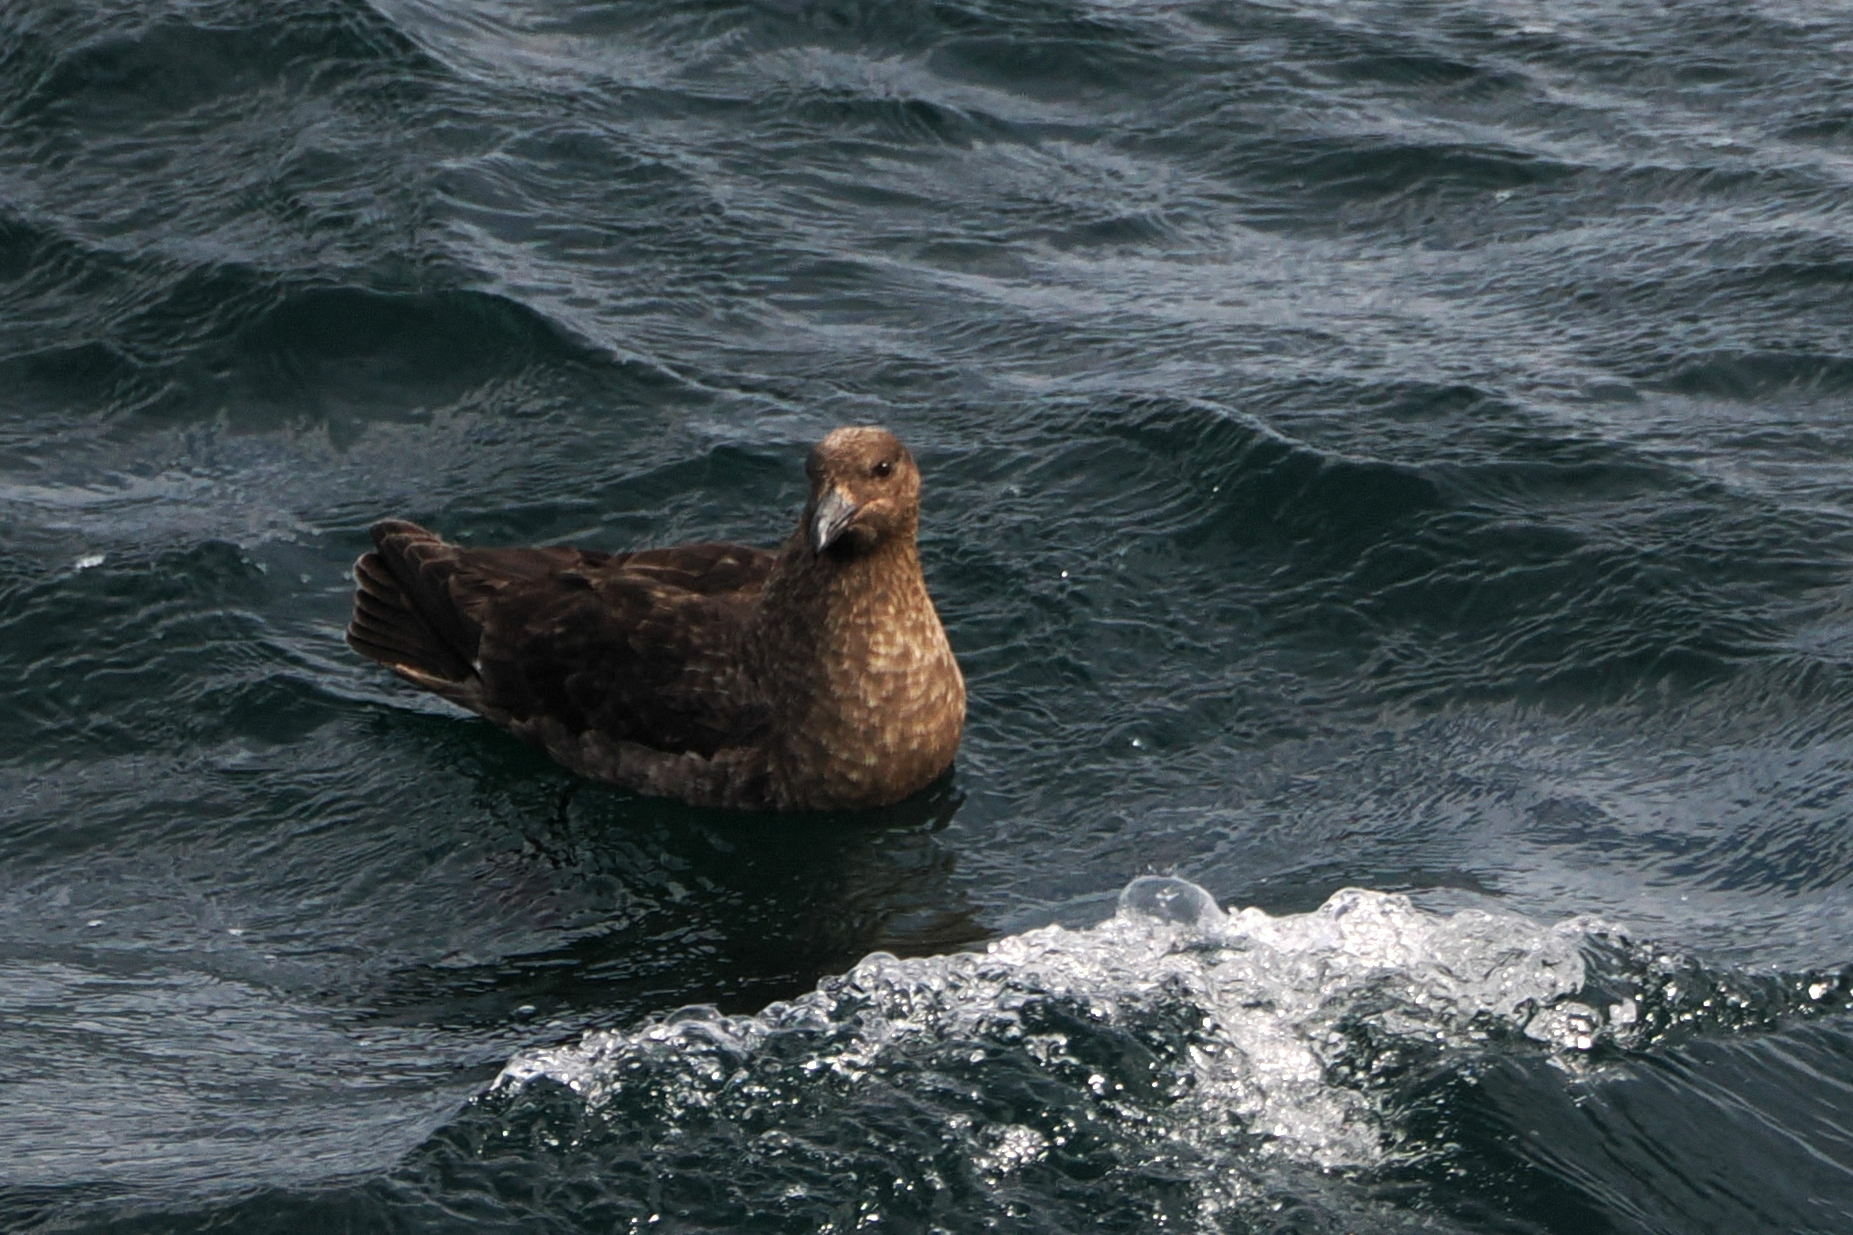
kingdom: Animalia
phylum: Chordata
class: Aves
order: Charadriiformes
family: Stercorariidae
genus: Stercorarius
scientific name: Stercorarius antarcticus
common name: Brown skua
